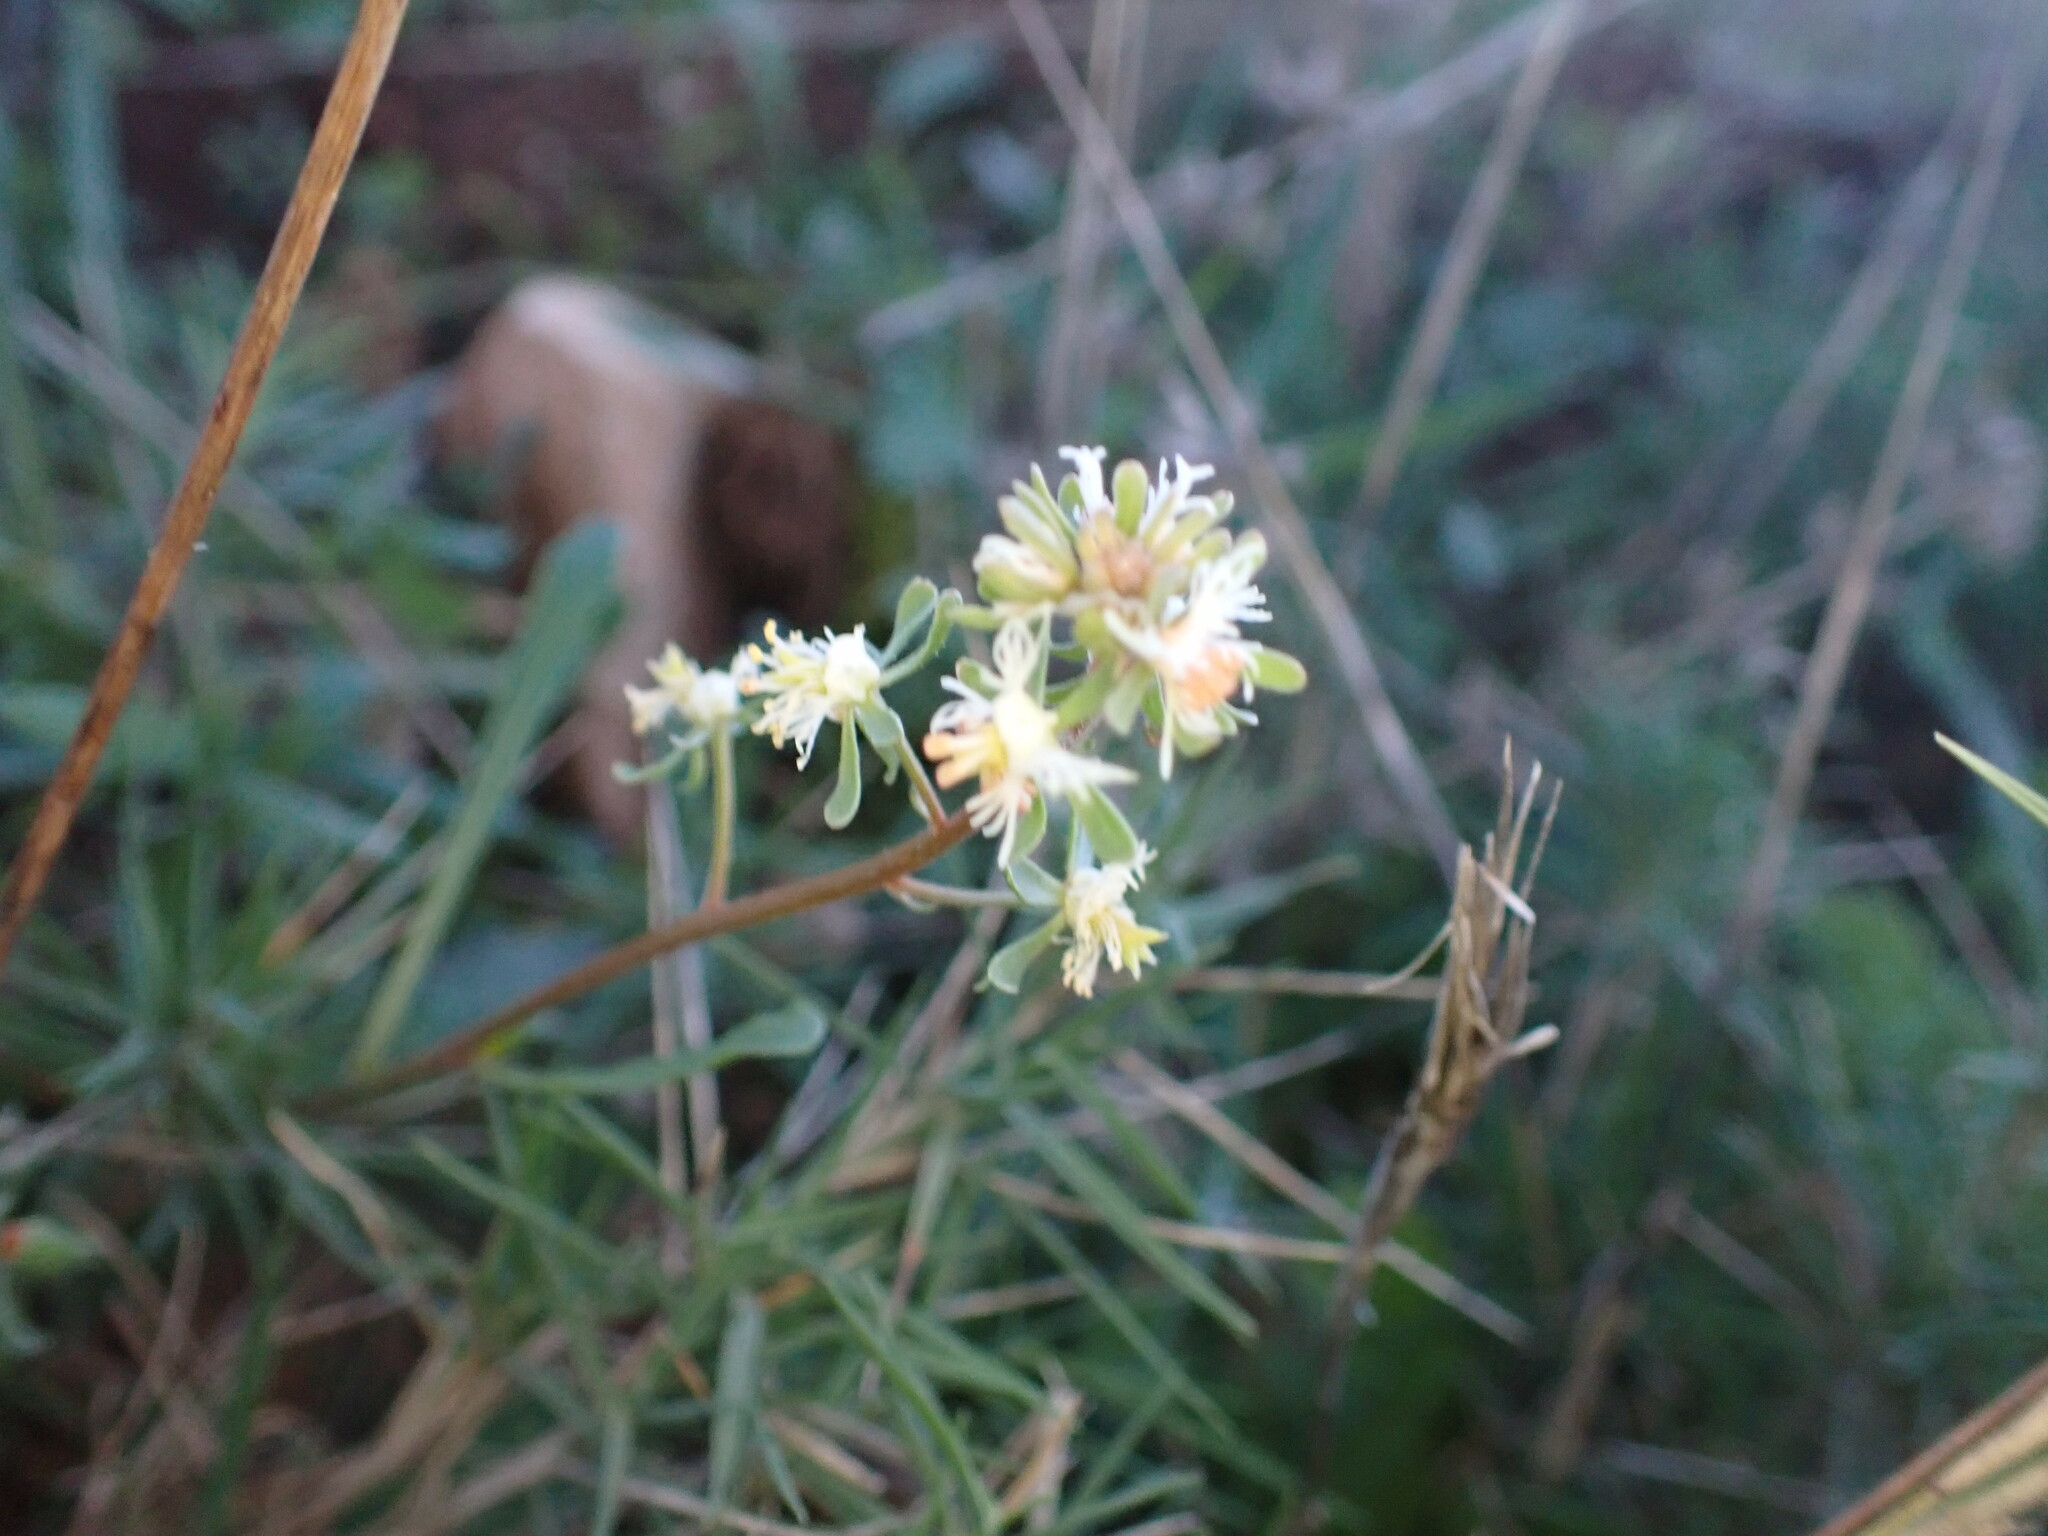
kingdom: Plantae
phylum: Tracheophyta
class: Magnoliopsida
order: Brassicales
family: Resedaceae
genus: Reseda
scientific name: Reseda phyteuma
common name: Corn mignonette
